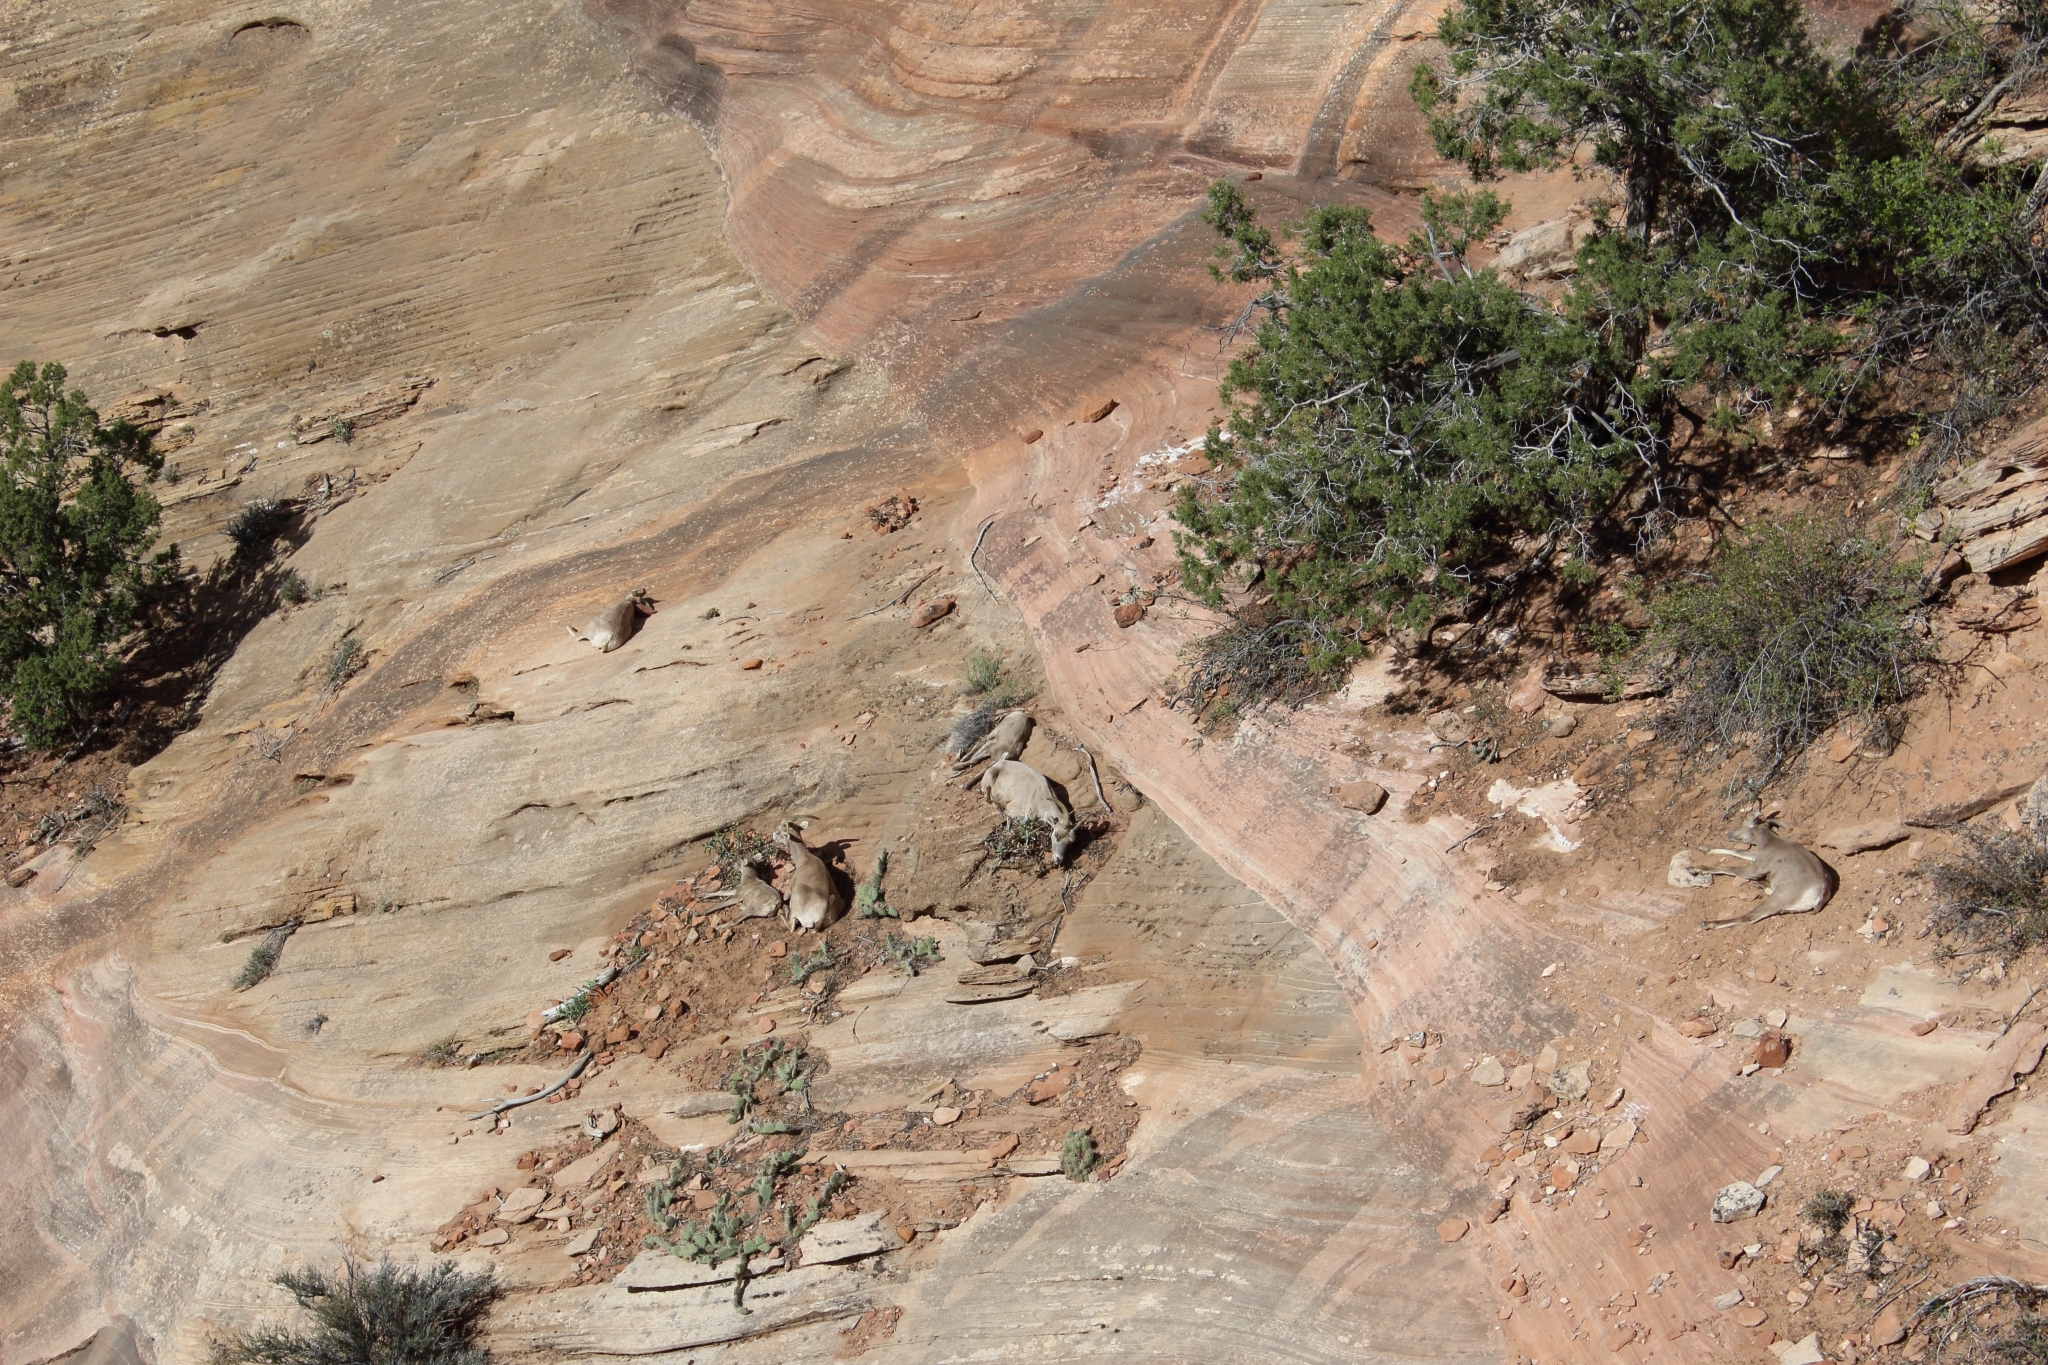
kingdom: Animalia
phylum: Chordata
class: Mammalia
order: Artiodactyla
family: Bovidae
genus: Ovis
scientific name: Ovis canadensis
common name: Bighorn sheep
